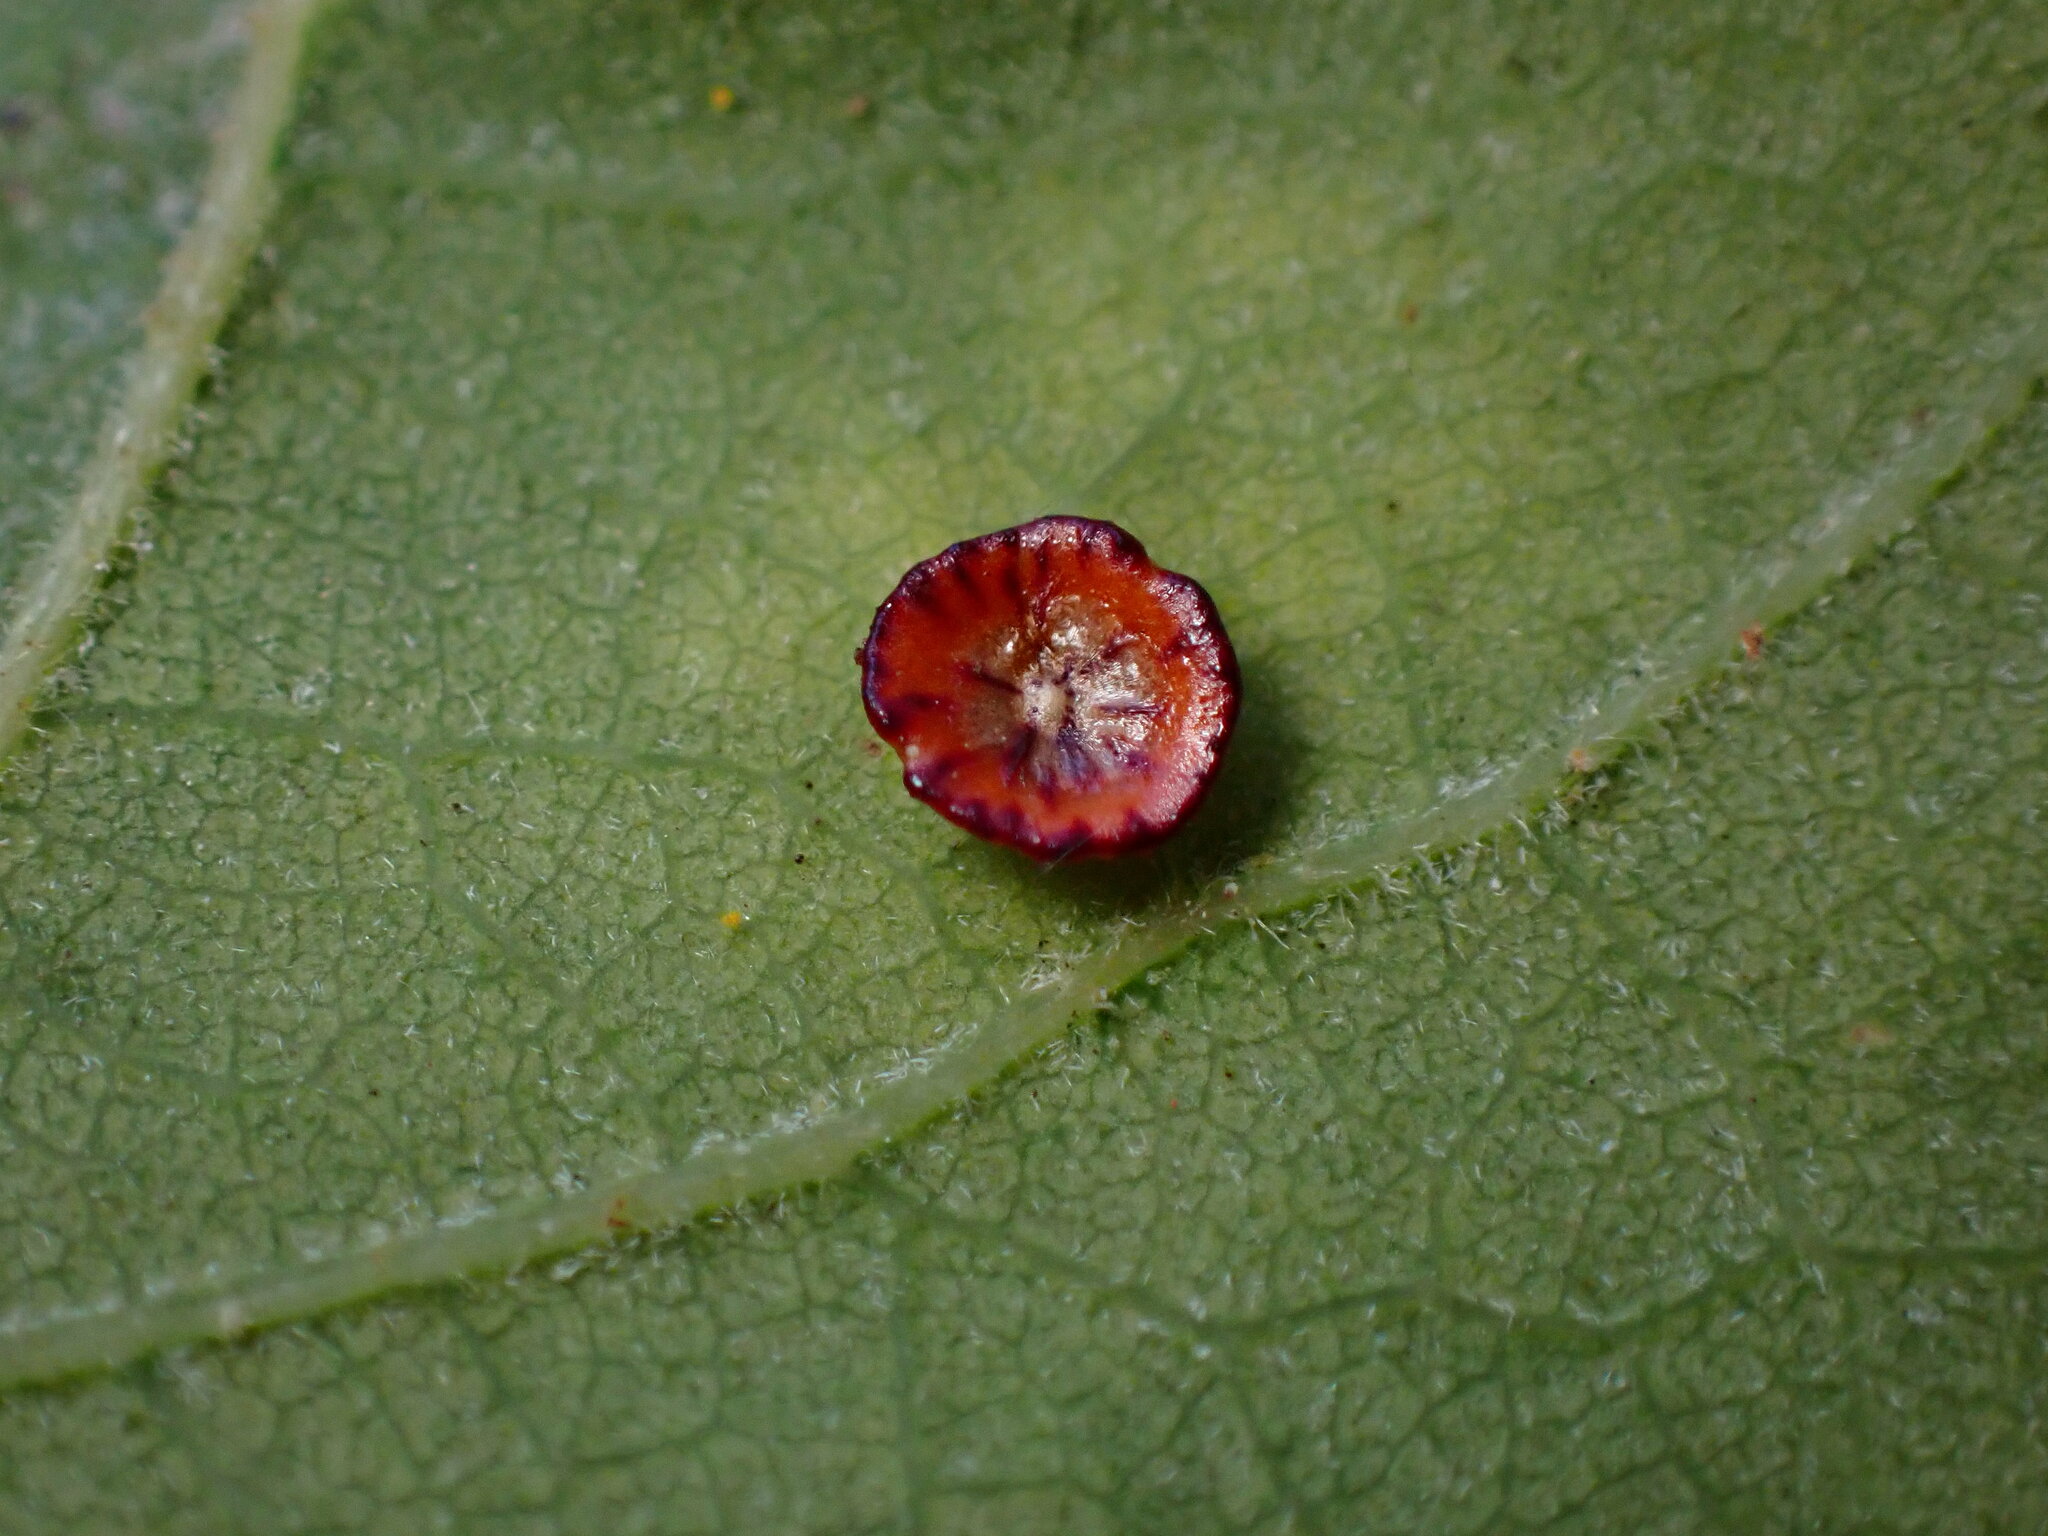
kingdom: Animalia
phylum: Arthropoda
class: Insecta
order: Hymenoptera
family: Cynipidae
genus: Andricus
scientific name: Andricus
